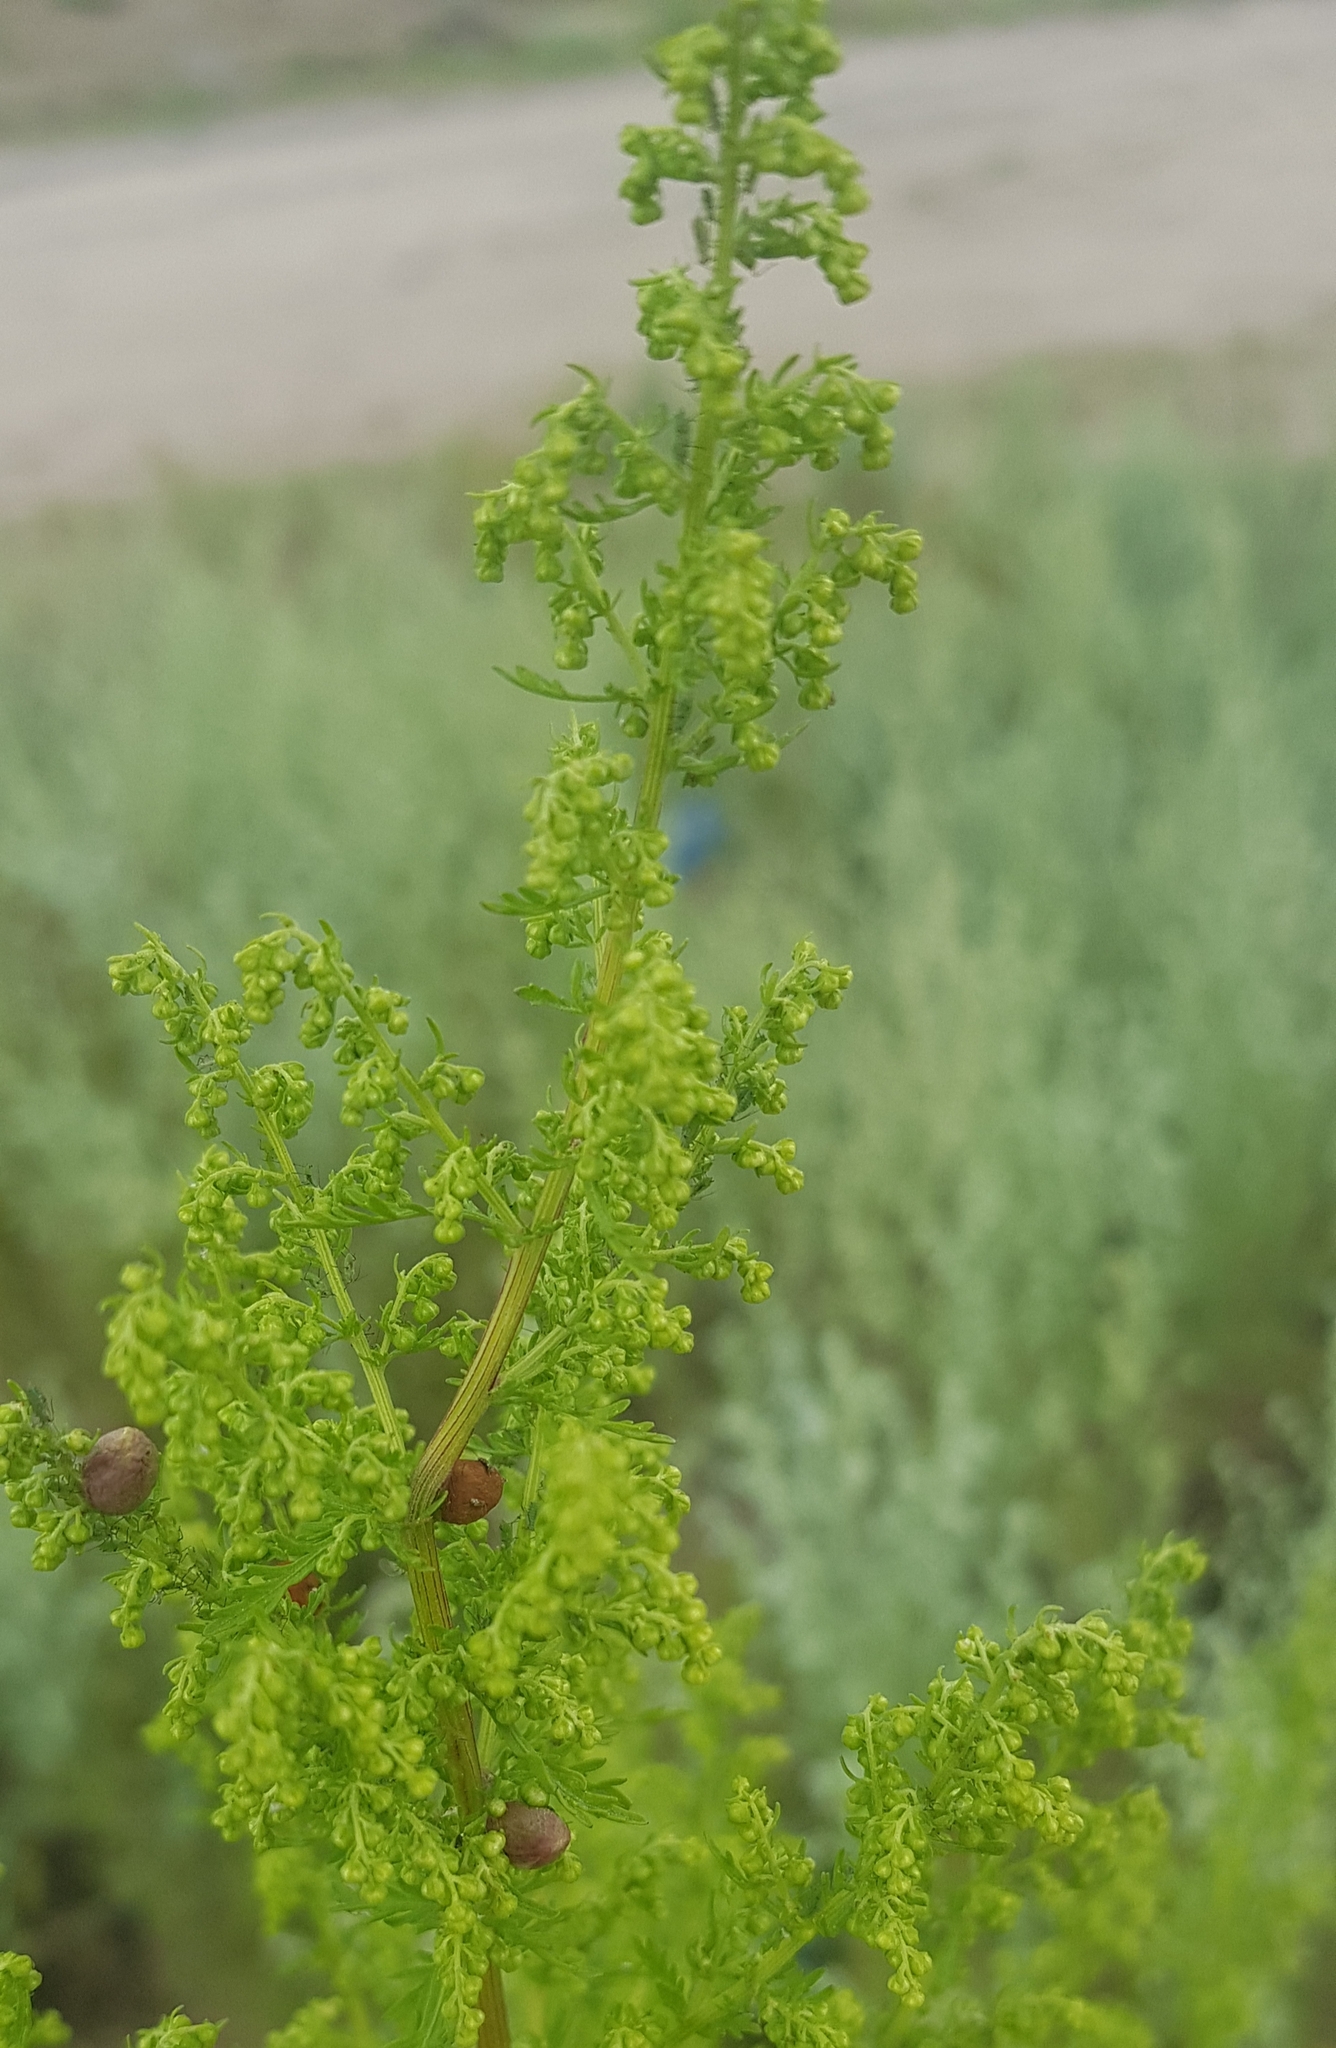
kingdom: Plantae
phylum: Tracheophyta
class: Magnoliopsida
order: Asterales
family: Asteraceae
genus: Artemisia
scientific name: Artemisia annua
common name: Sweet sagewort
